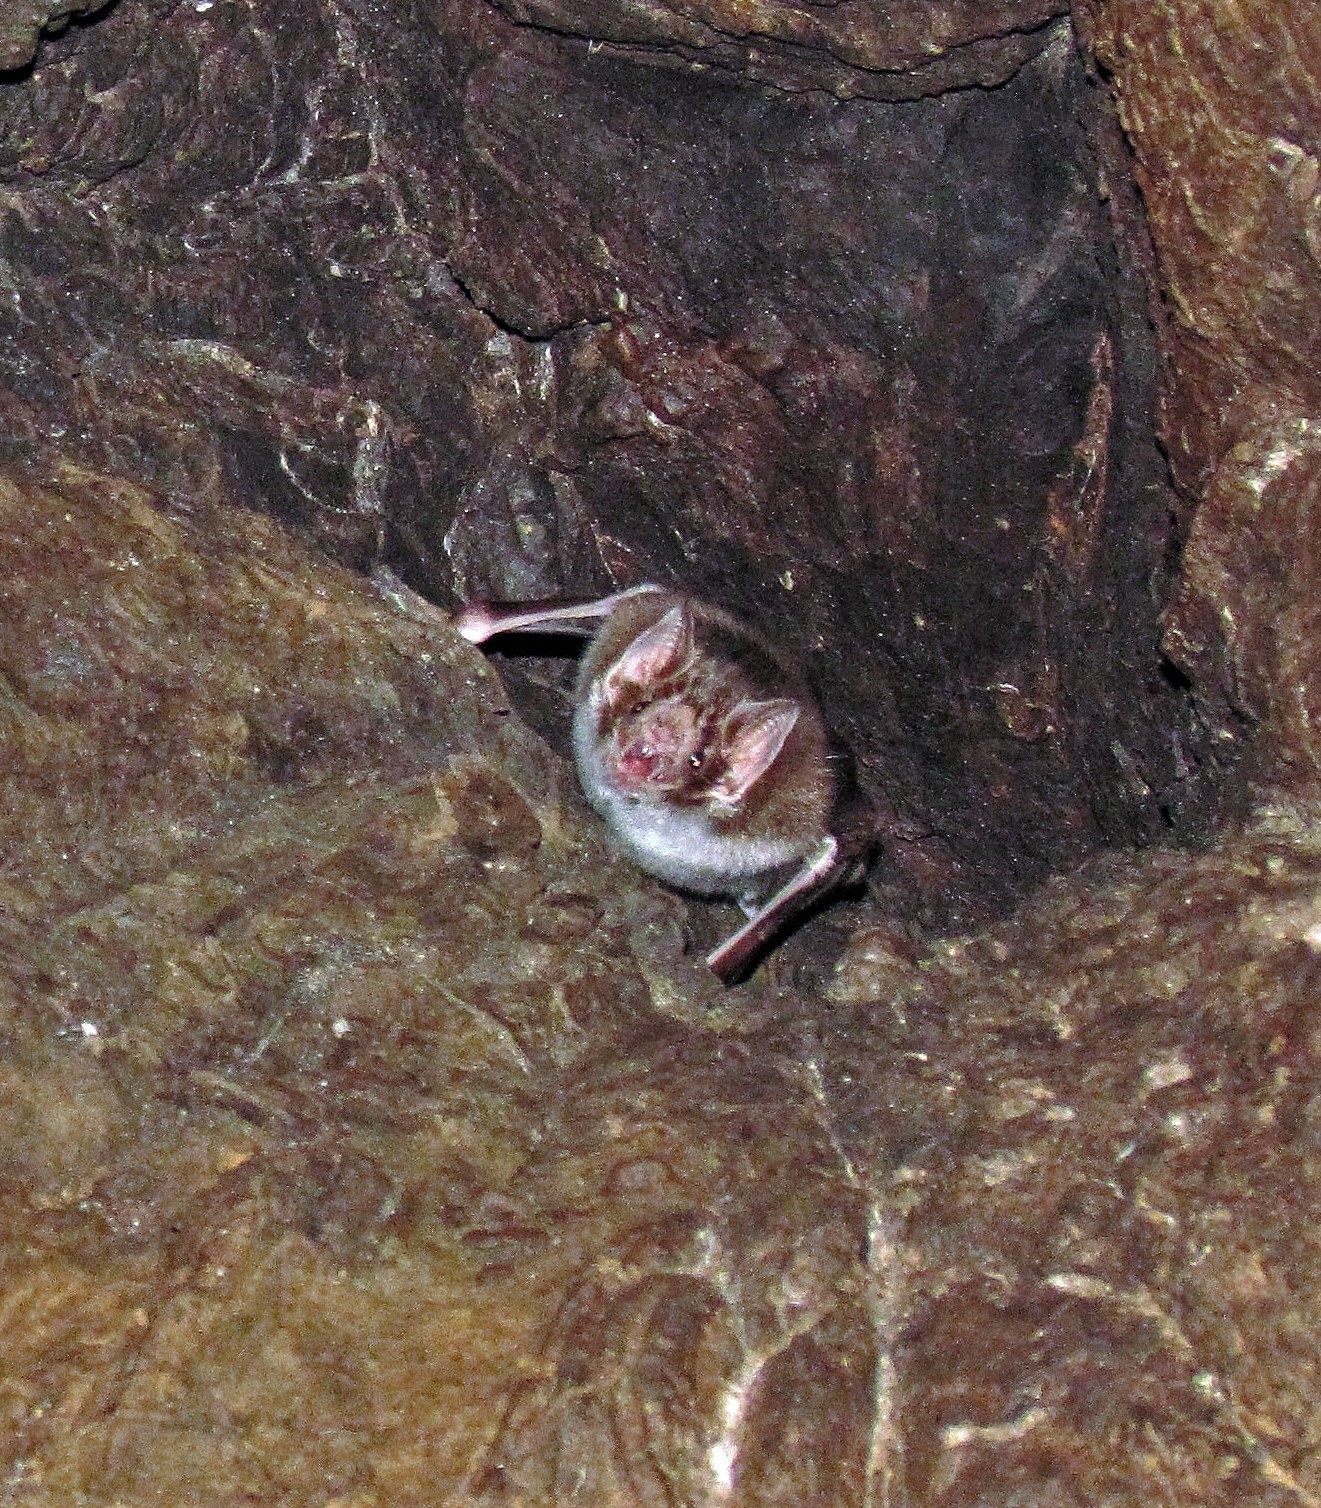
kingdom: Animalia
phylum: Chordata
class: Mammalia
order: Chiroptera
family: Phyllostomidae
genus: Desmodus
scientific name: Desmodus rotundus
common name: Common vampire bat
